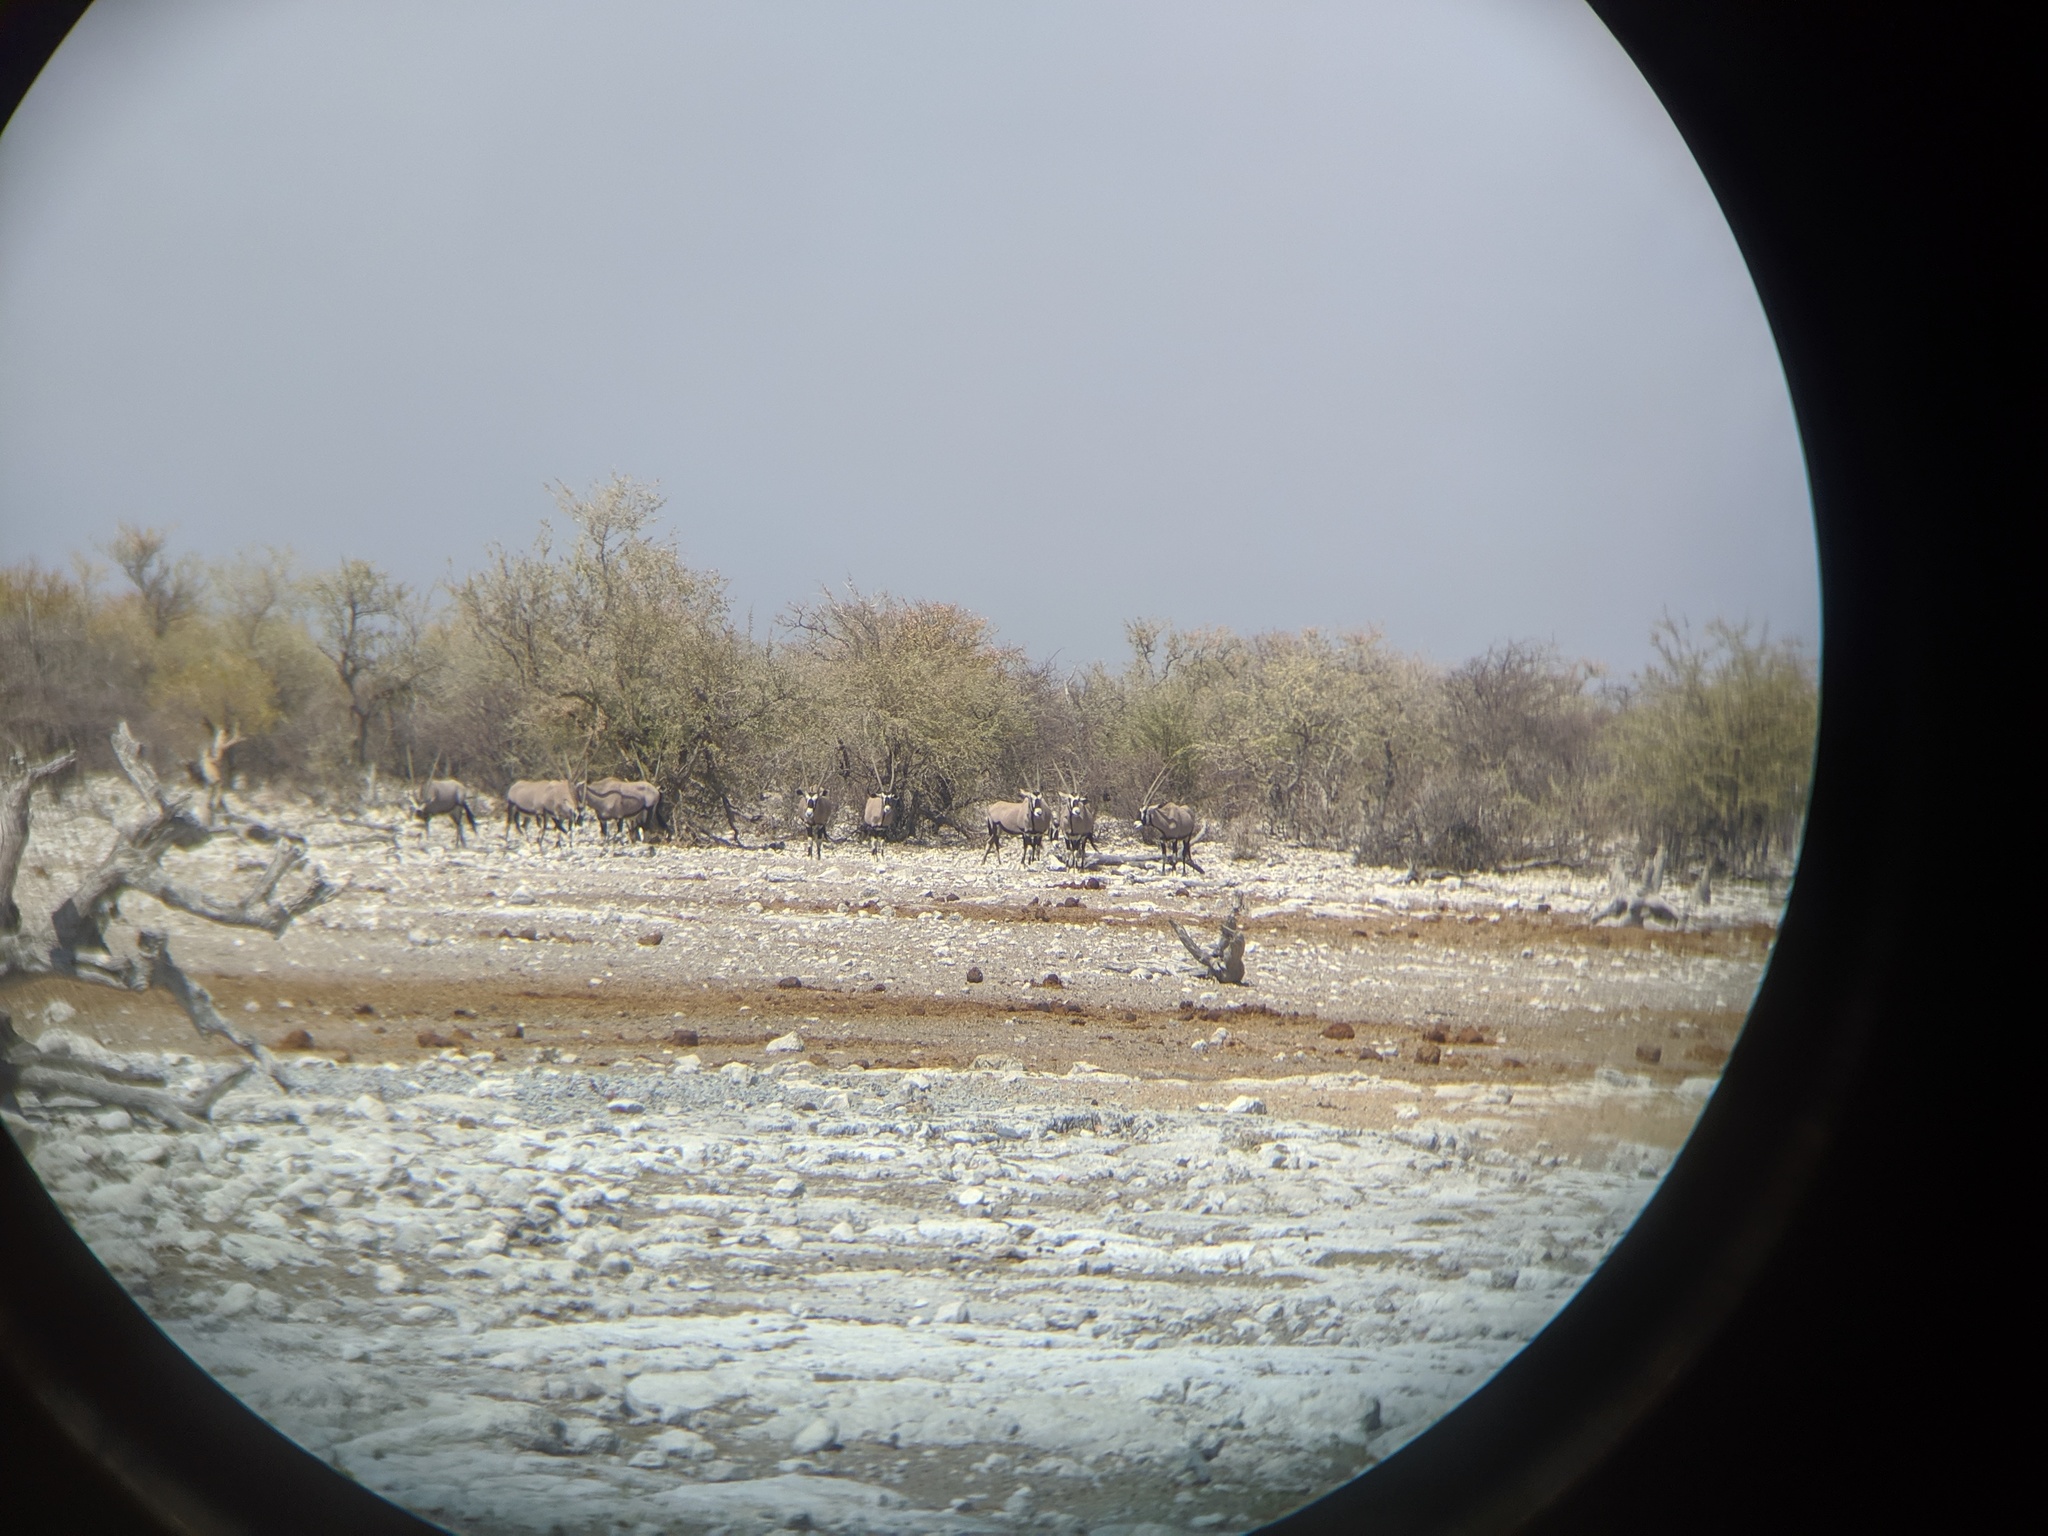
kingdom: Animalia
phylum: Chordata
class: Mammalia
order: Artiodactyla
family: Bovidae
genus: Oryx
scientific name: Oryx gazella
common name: Gemsbok
